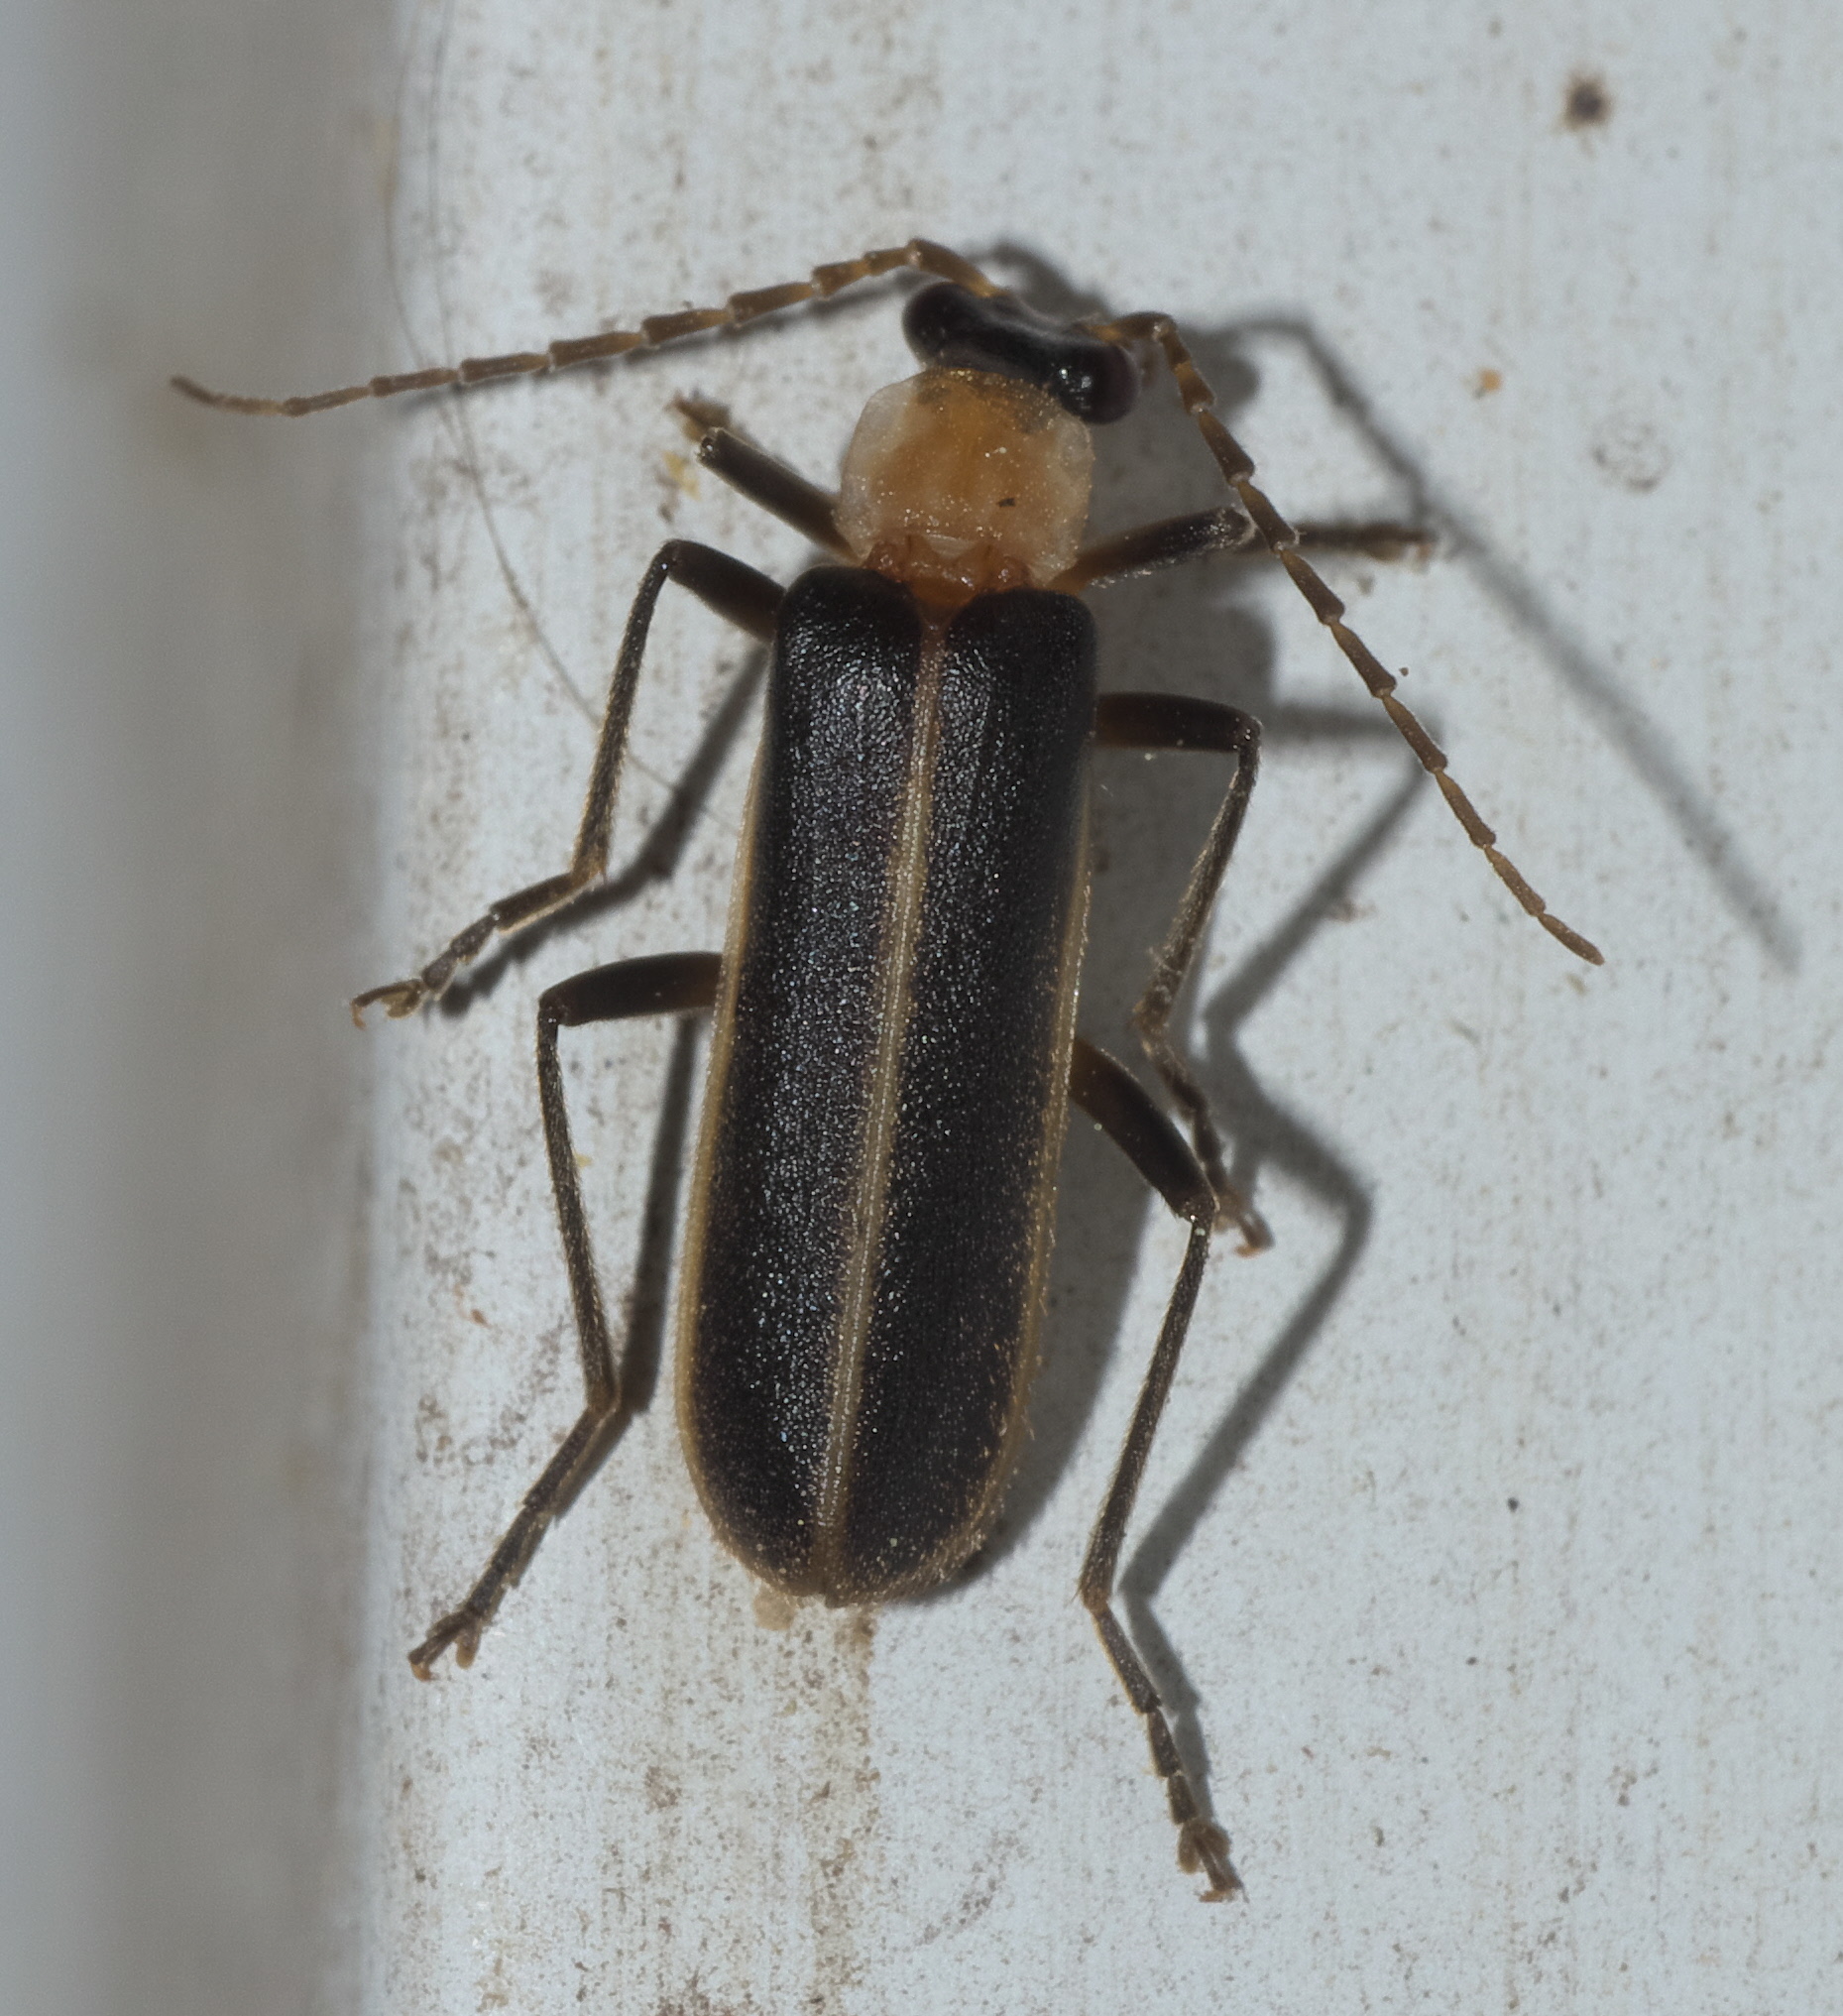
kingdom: Animalia
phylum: Arthropoda
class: Insecta
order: Coleoptera
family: Cantharidae
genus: Podabrus
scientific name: Podabrus flavicollis
